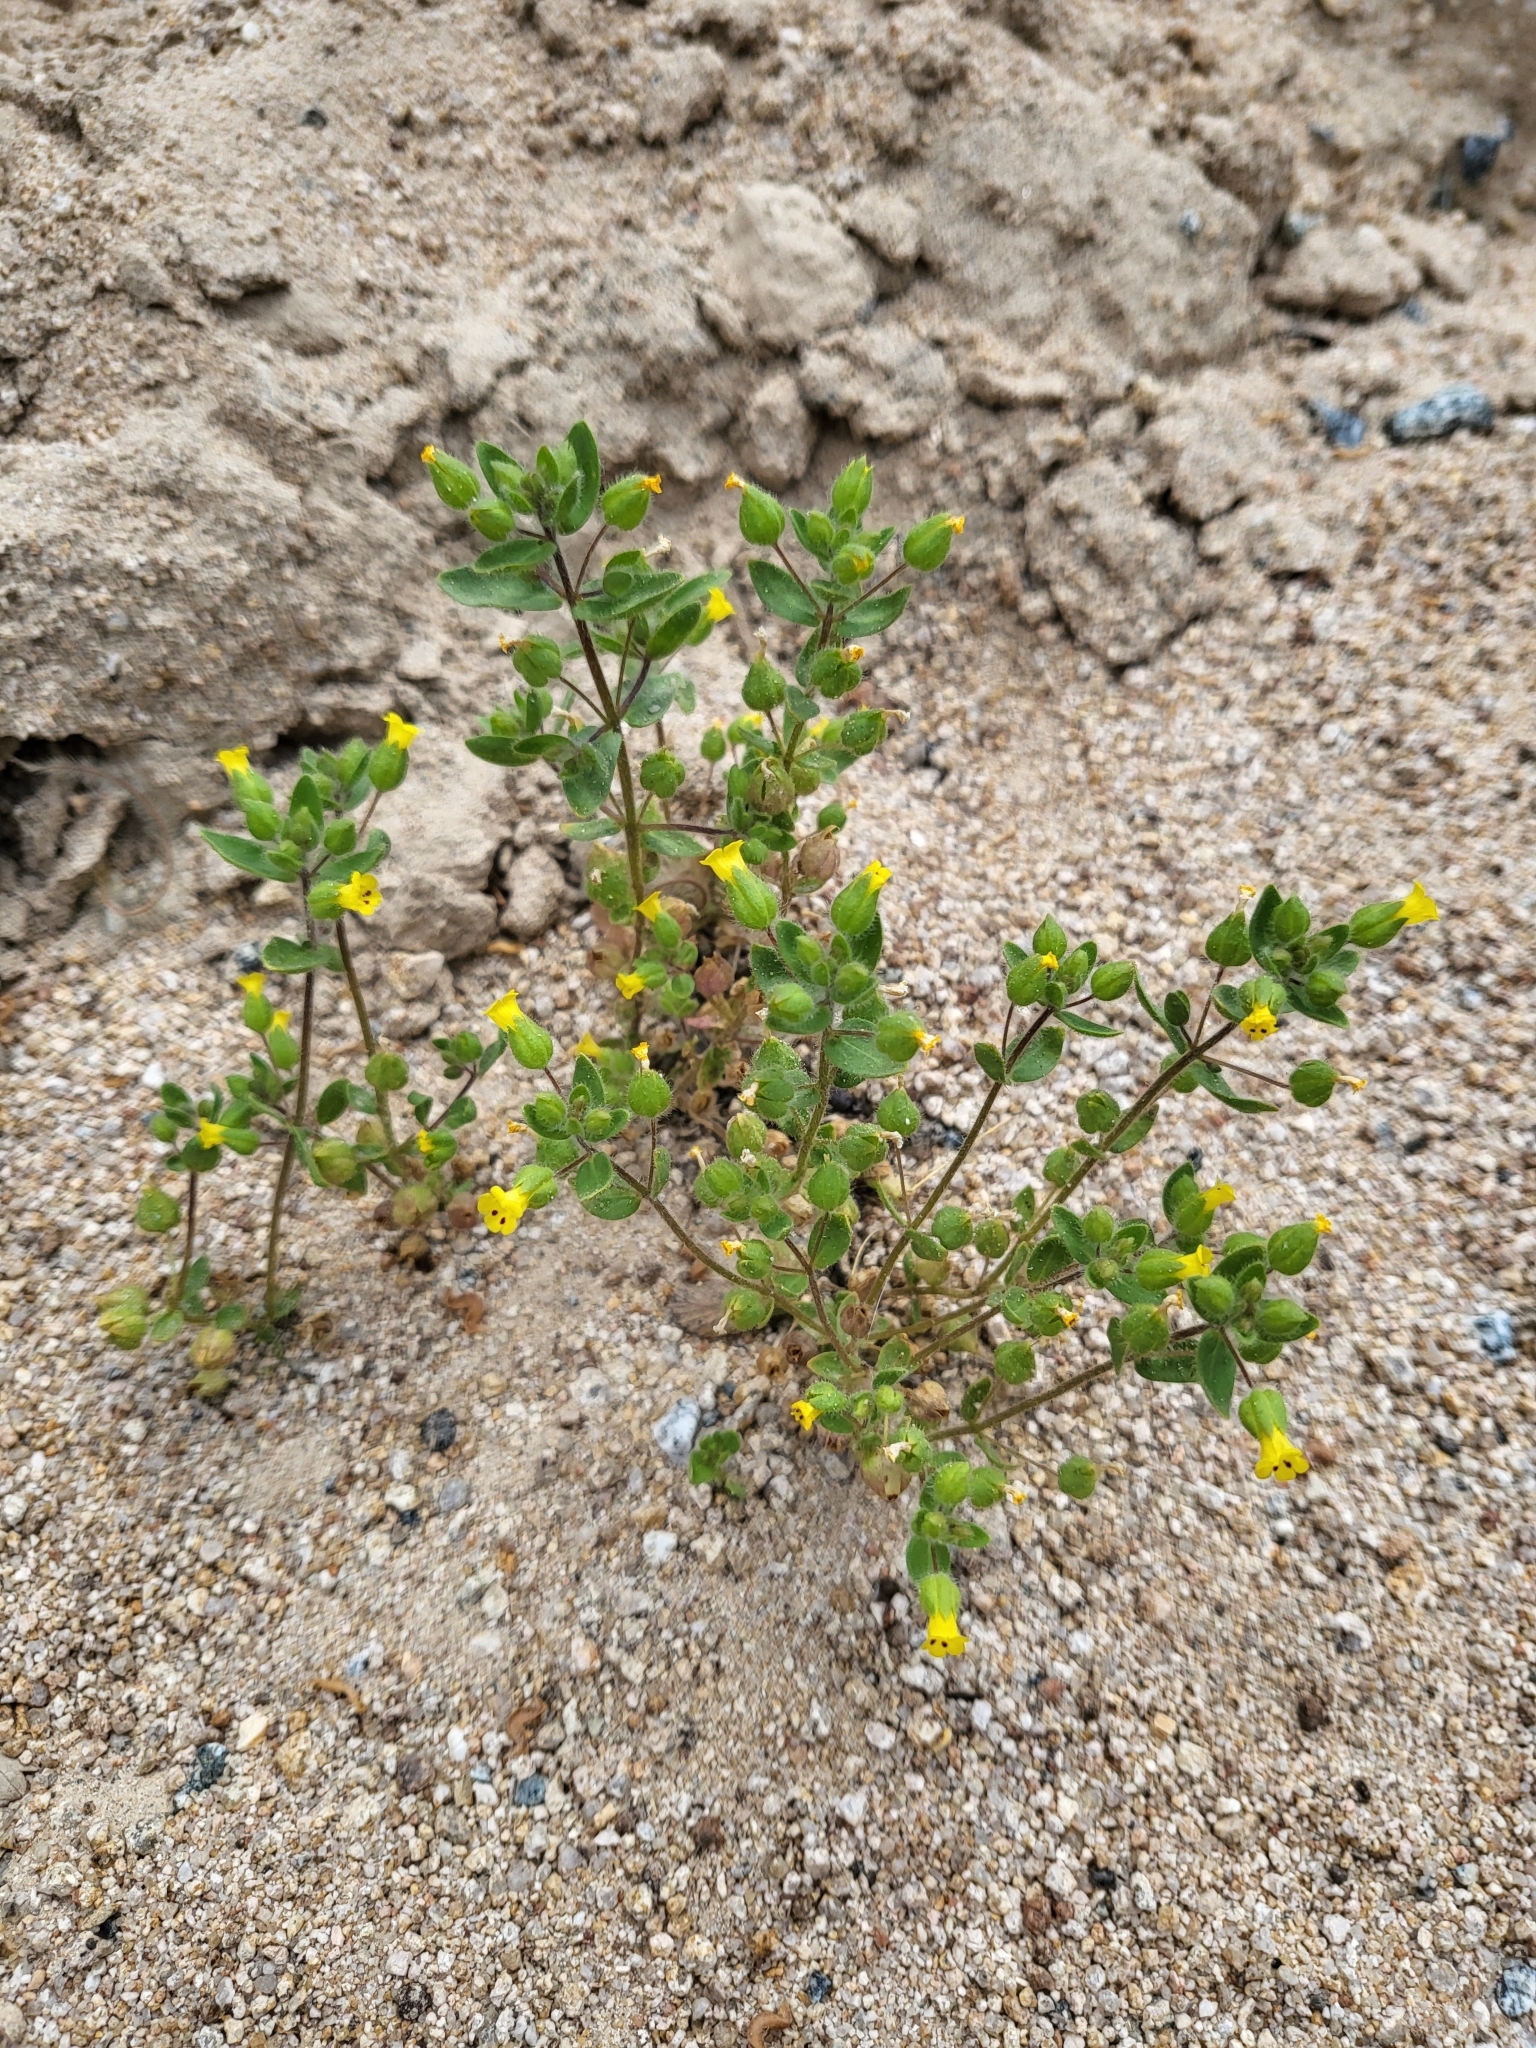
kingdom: Plantae
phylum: Tracheophyta
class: Magnoliopsida
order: Lamiales
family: Phrymaceae
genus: Mimetanthe
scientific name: Mimetanthe pilosa
